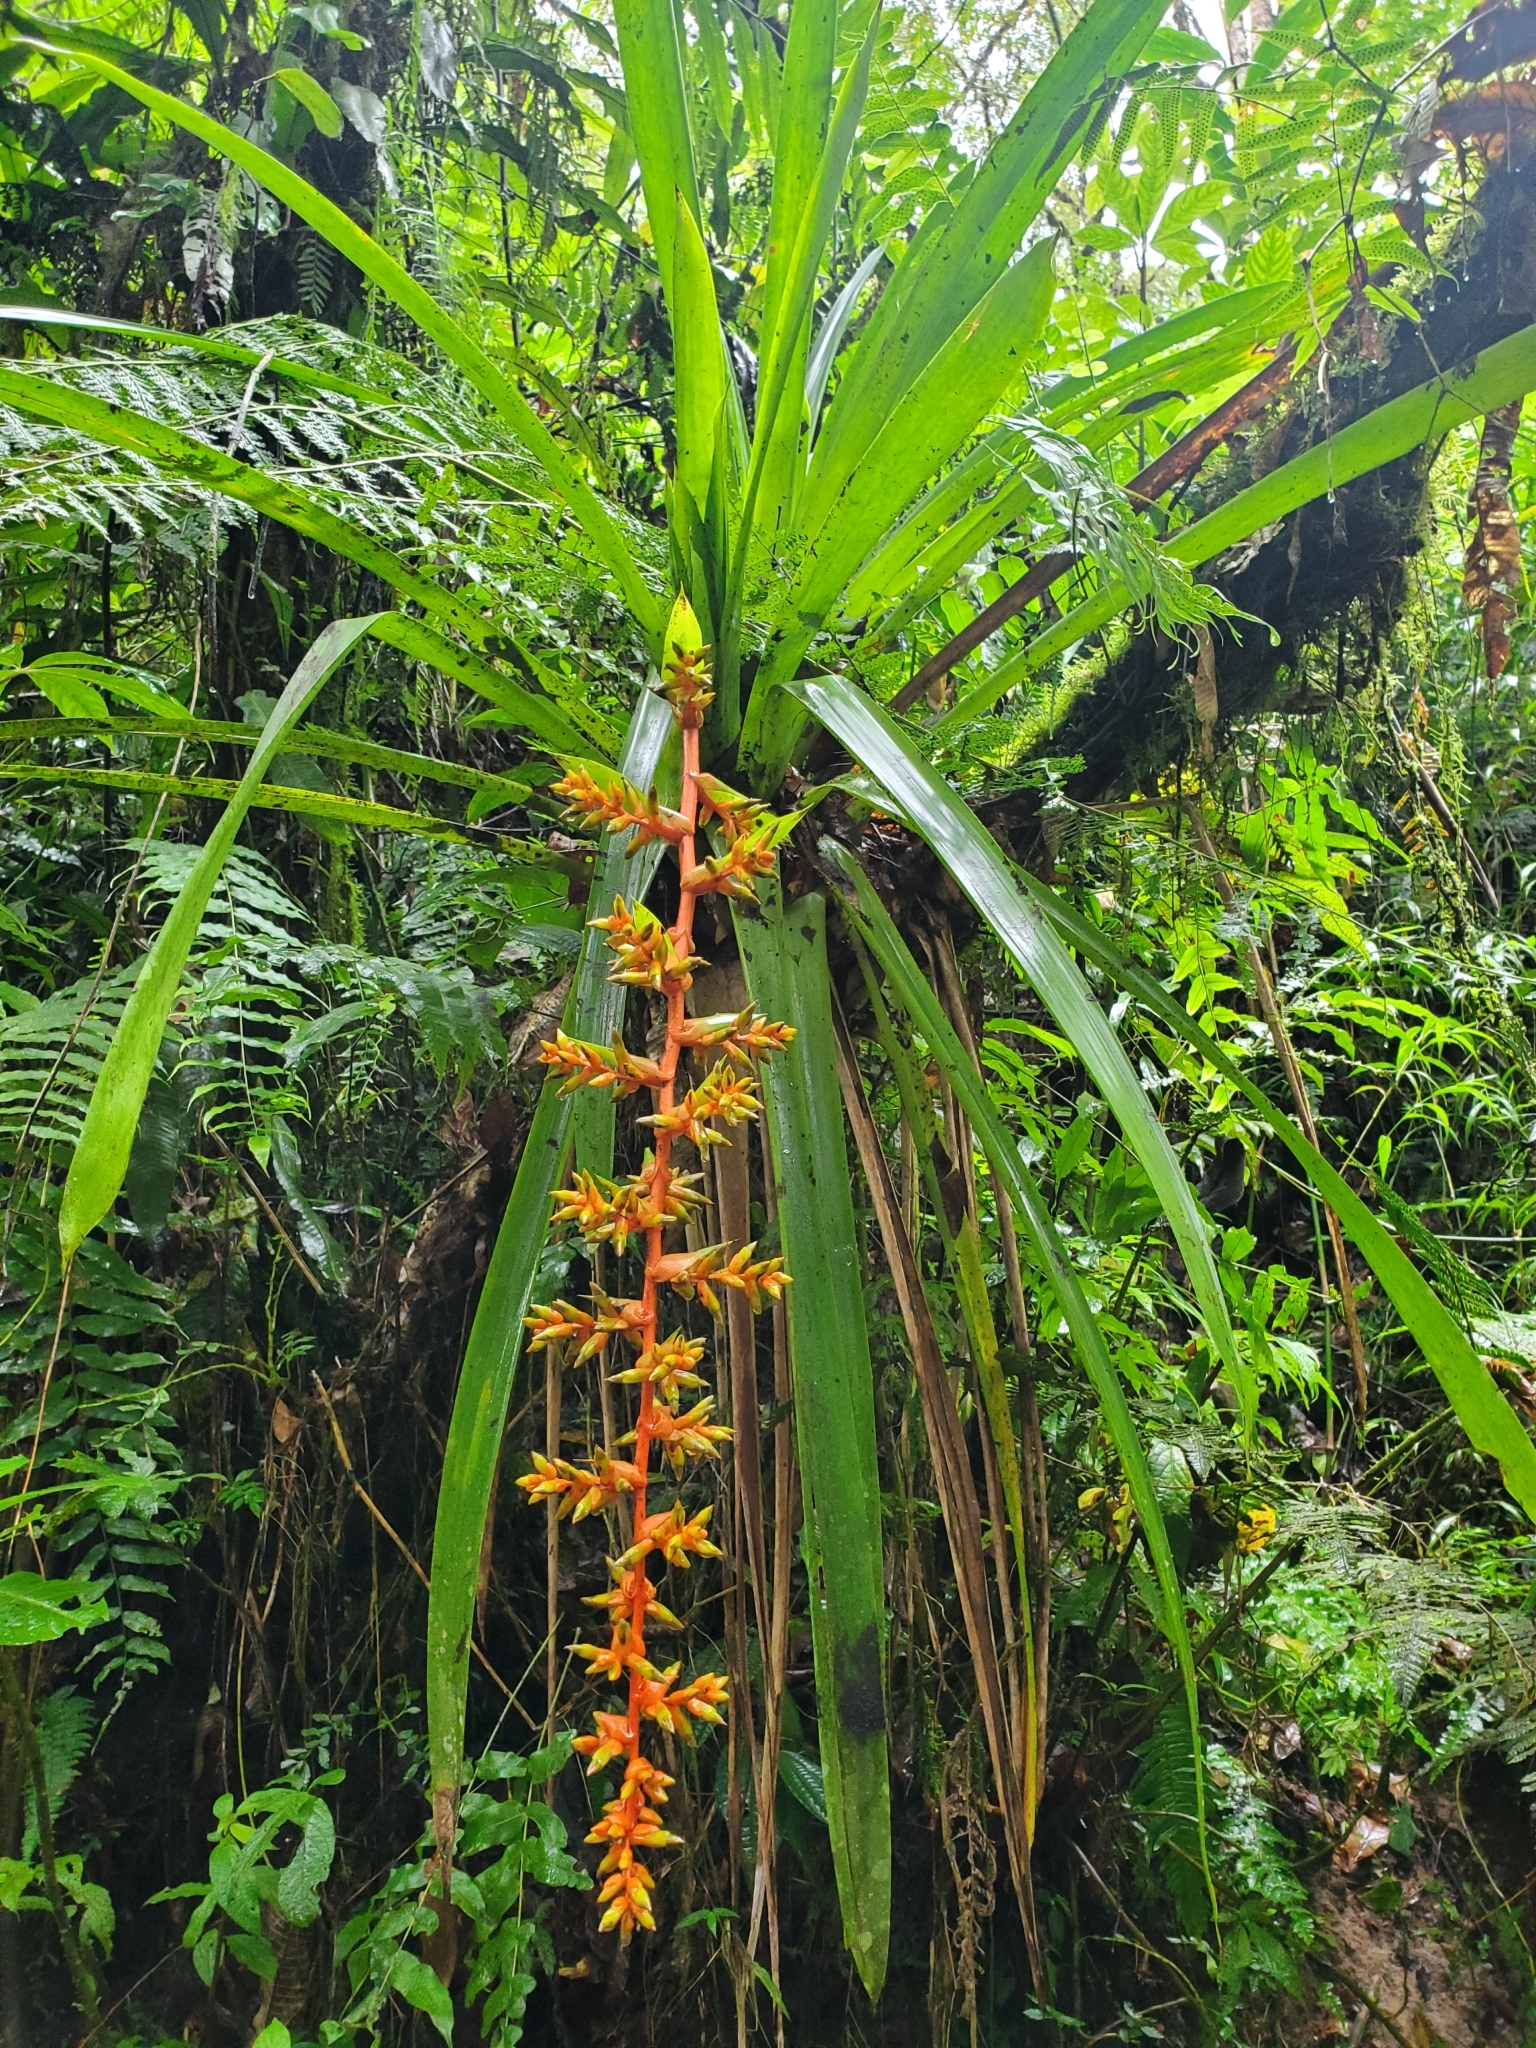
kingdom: Plantae
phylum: Tracheophyta
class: Liliopsida
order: Poales
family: Bromeliaceae
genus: Guzmania
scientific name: Guzmania multiflora
